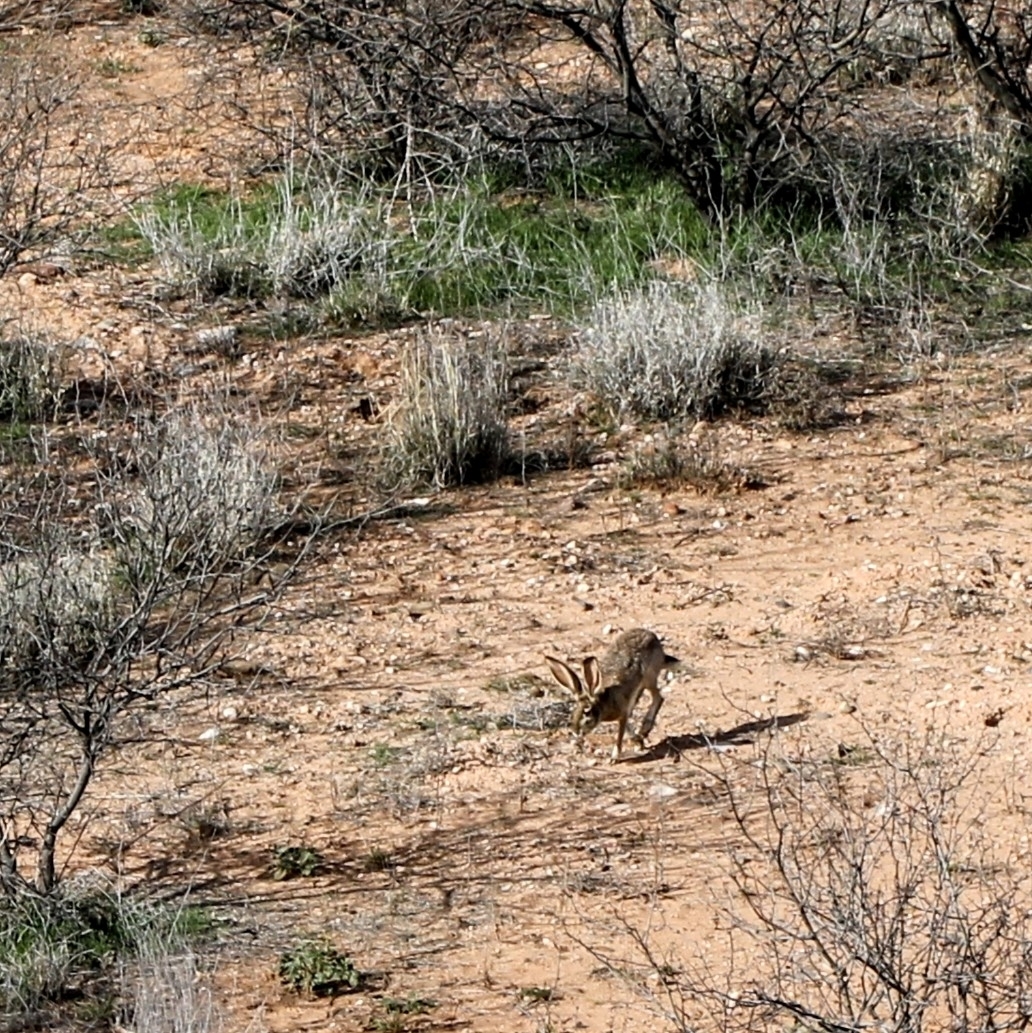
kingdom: Animalia
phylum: Chordata
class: Mammalia
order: Lagomorpha
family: Leporidae
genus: Lepus
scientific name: Lepus californicus
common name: Black-tailed jackrabbit
